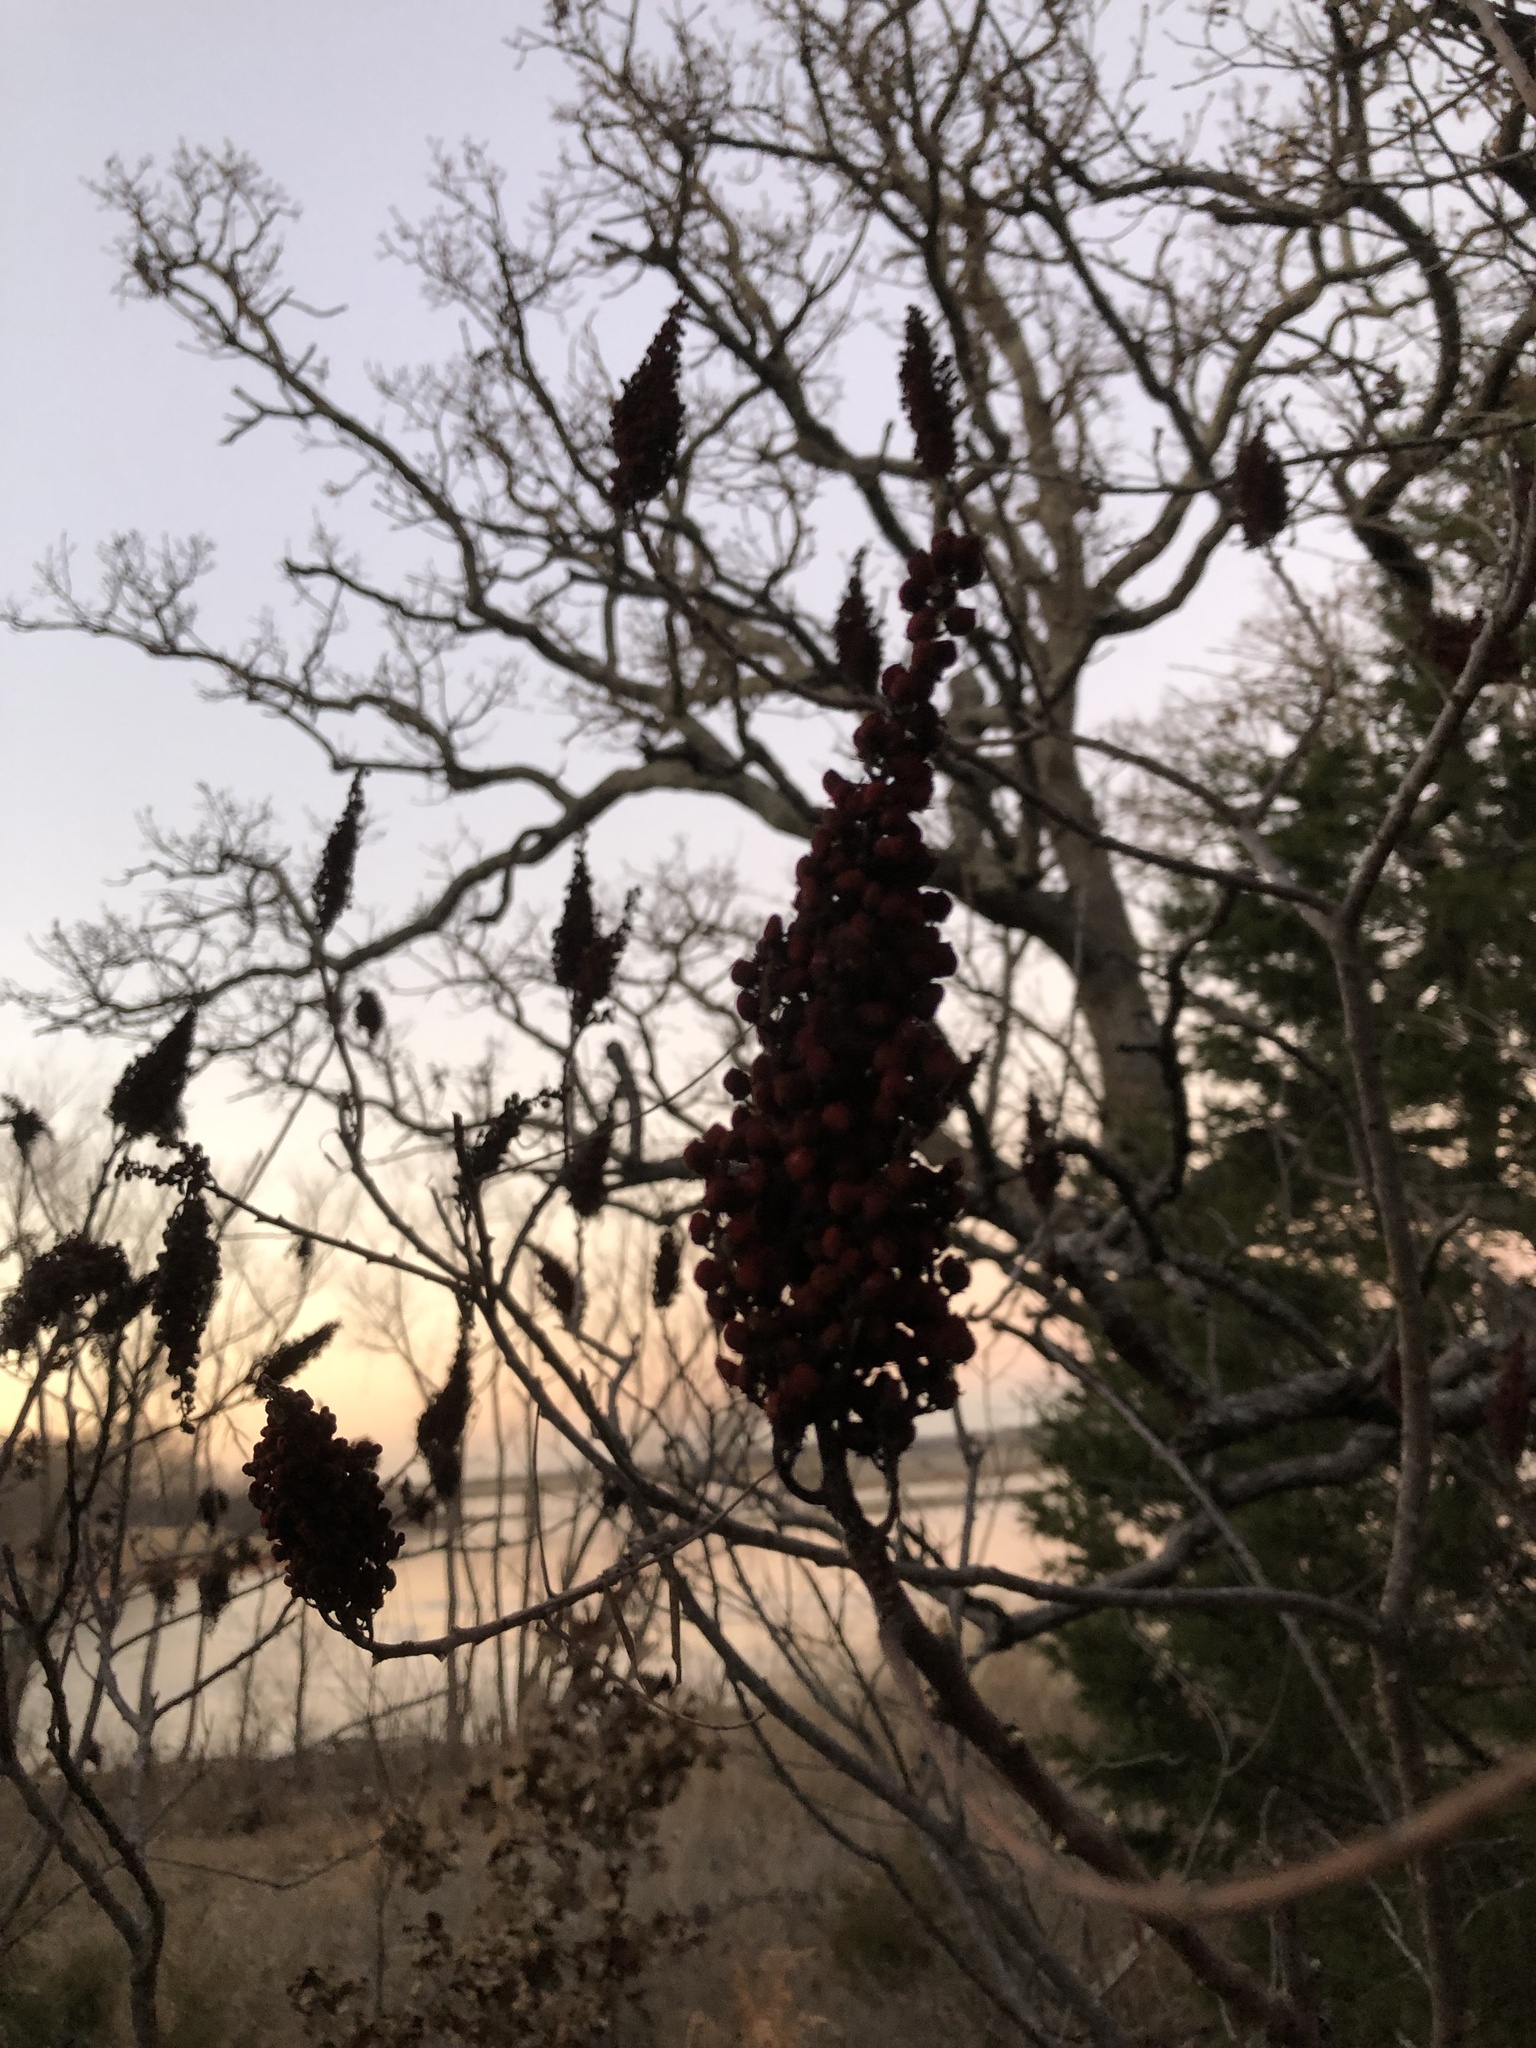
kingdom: Plantae
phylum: Tracheophyta
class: Magnoliopsida
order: Sapindales
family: Anacardiaceae
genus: Rhus
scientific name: Rhus glabra
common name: Scarlet sumac
